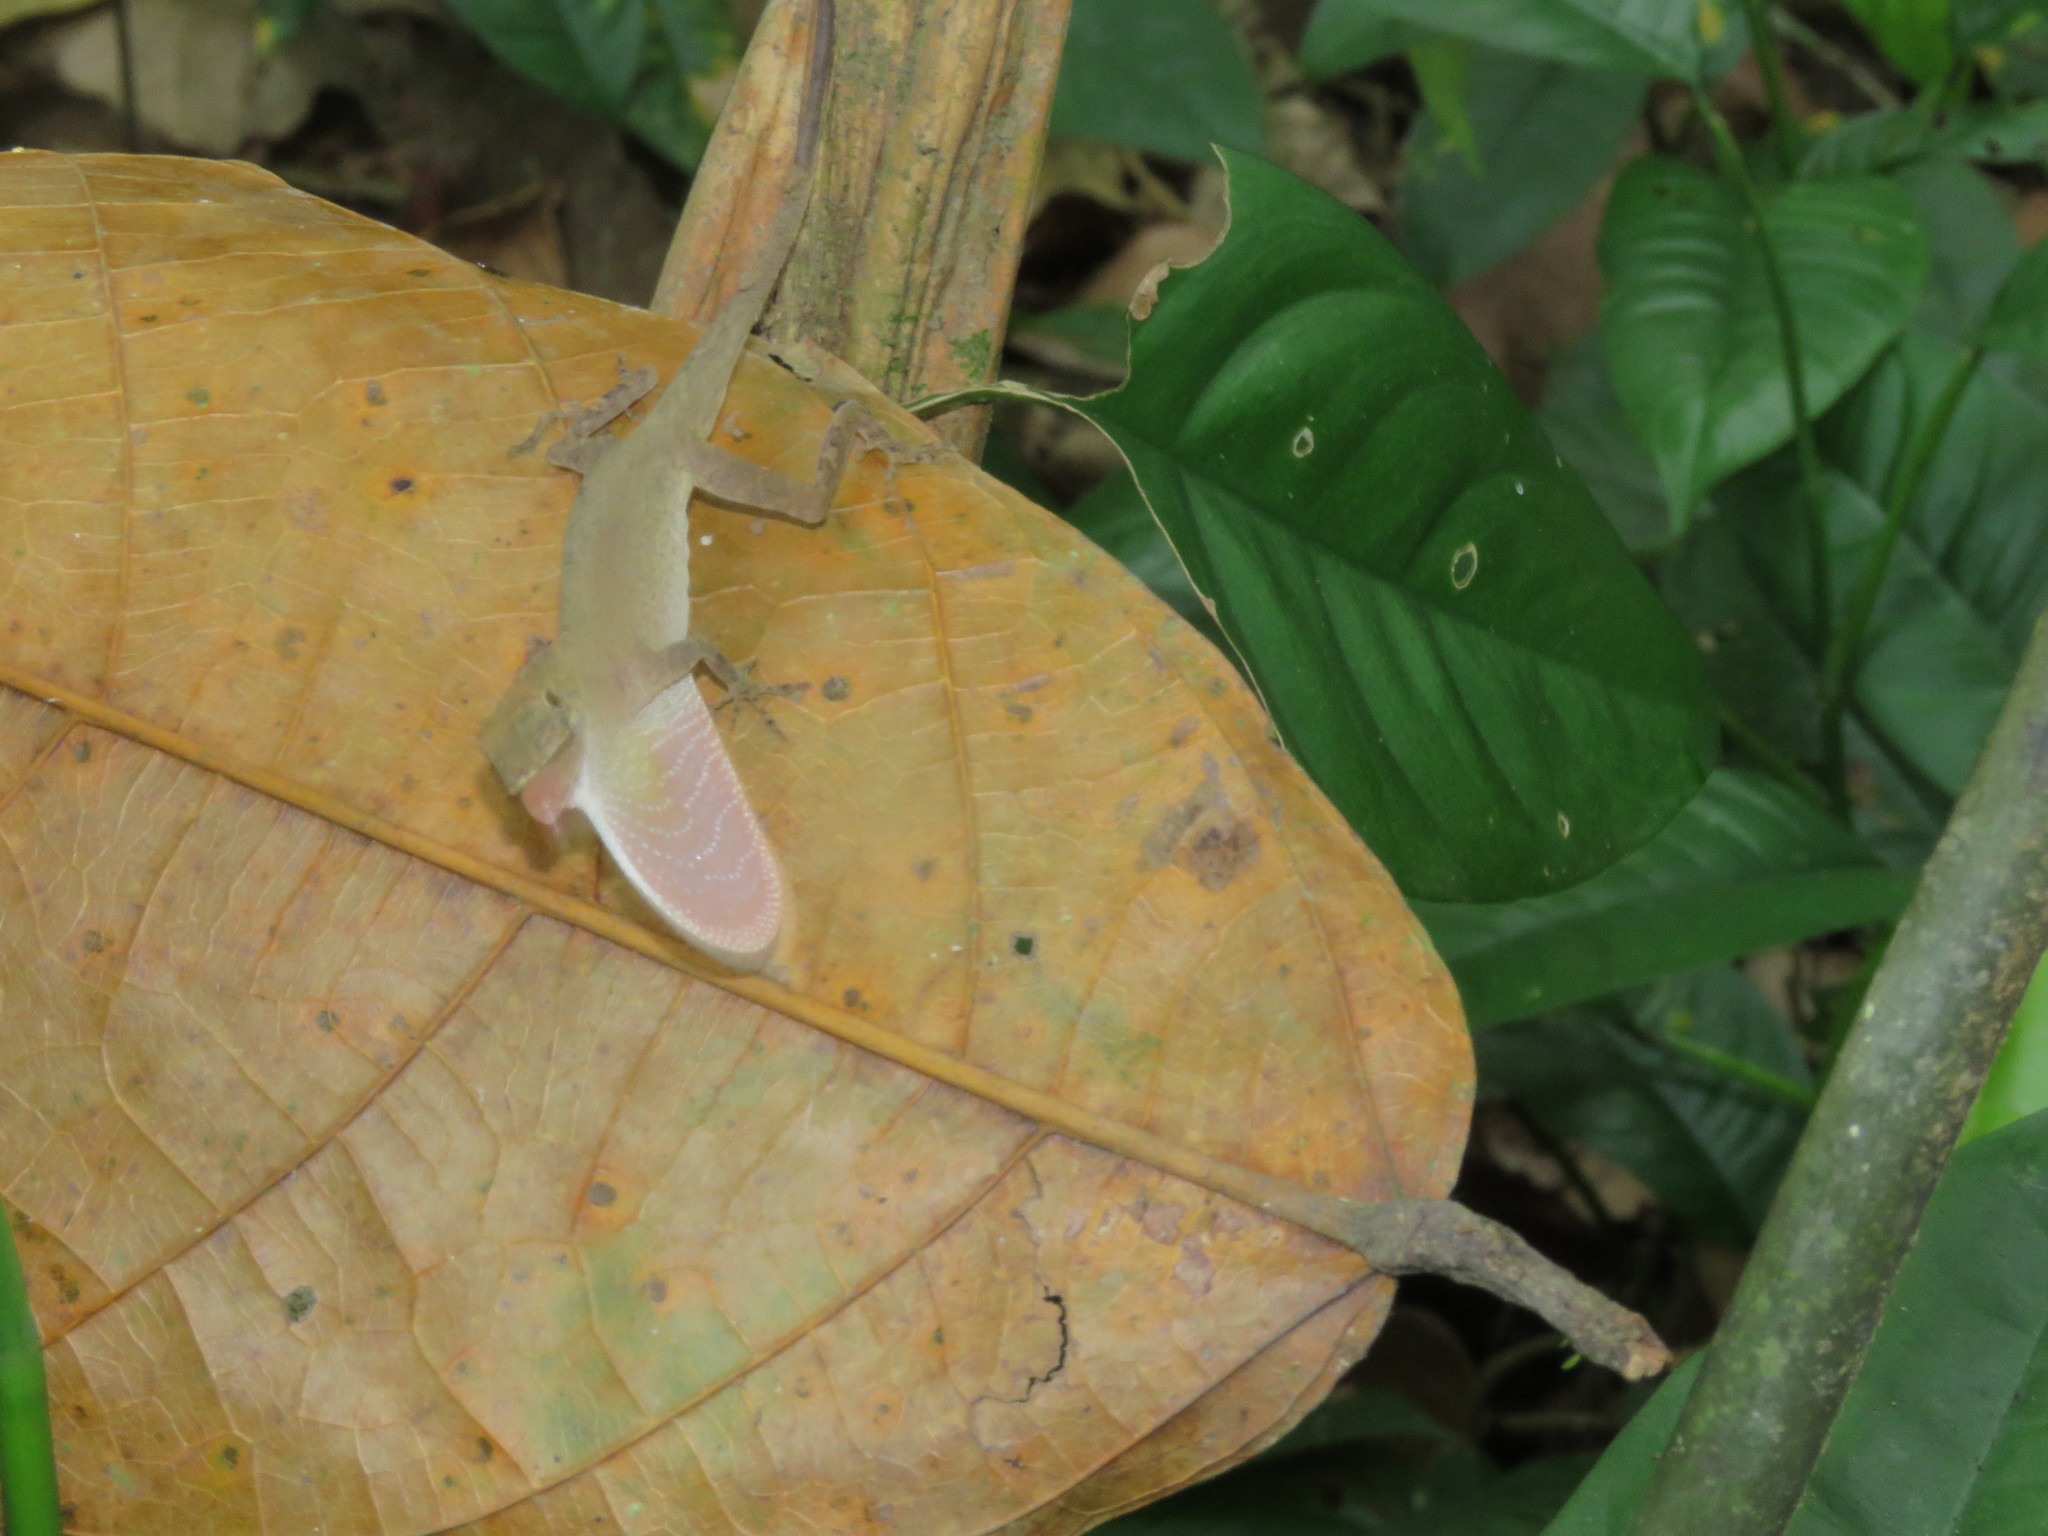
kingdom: Animalia
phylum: Chordata
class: Squamata
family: Dactyloidae
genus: Anolis
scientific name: Anolis fuscoauratus
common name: Brown-eared anole
